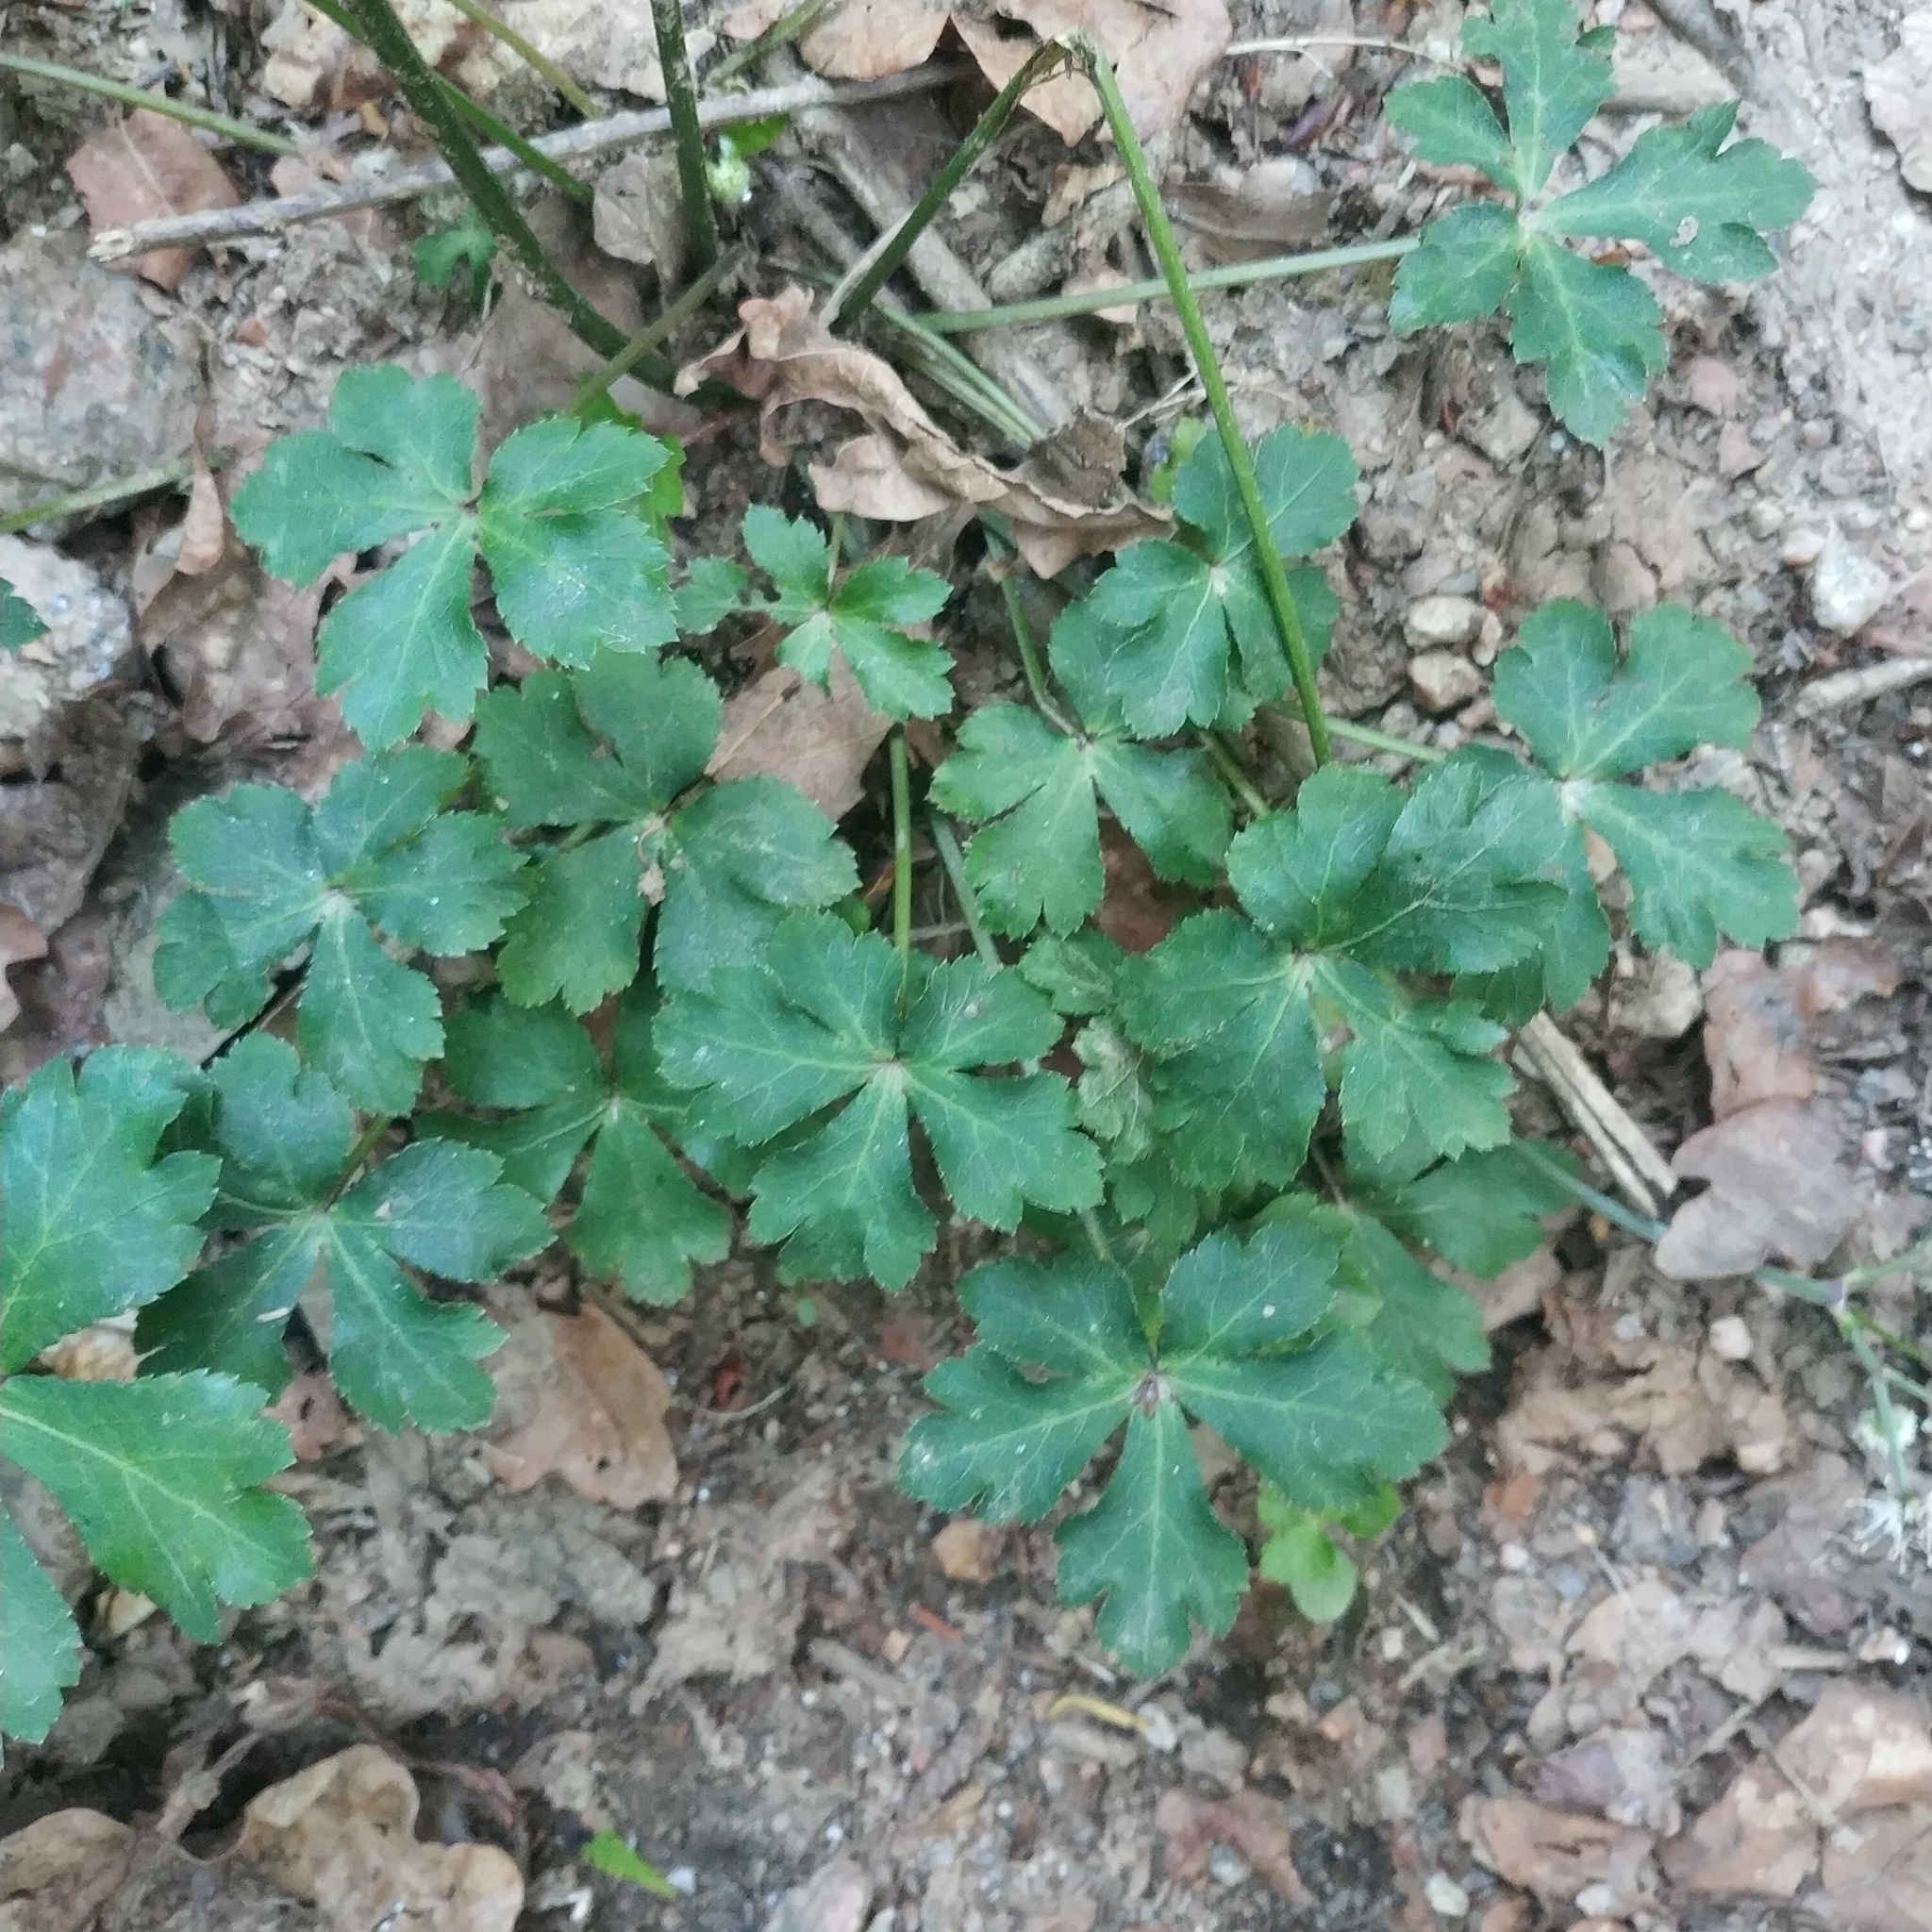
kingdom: Plantae
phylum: Tracheophyta
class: Magnoliopsida
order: Apiales
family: Apiaceae
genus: Sanicula
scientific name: Sanicula europaea
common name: Sanicle
